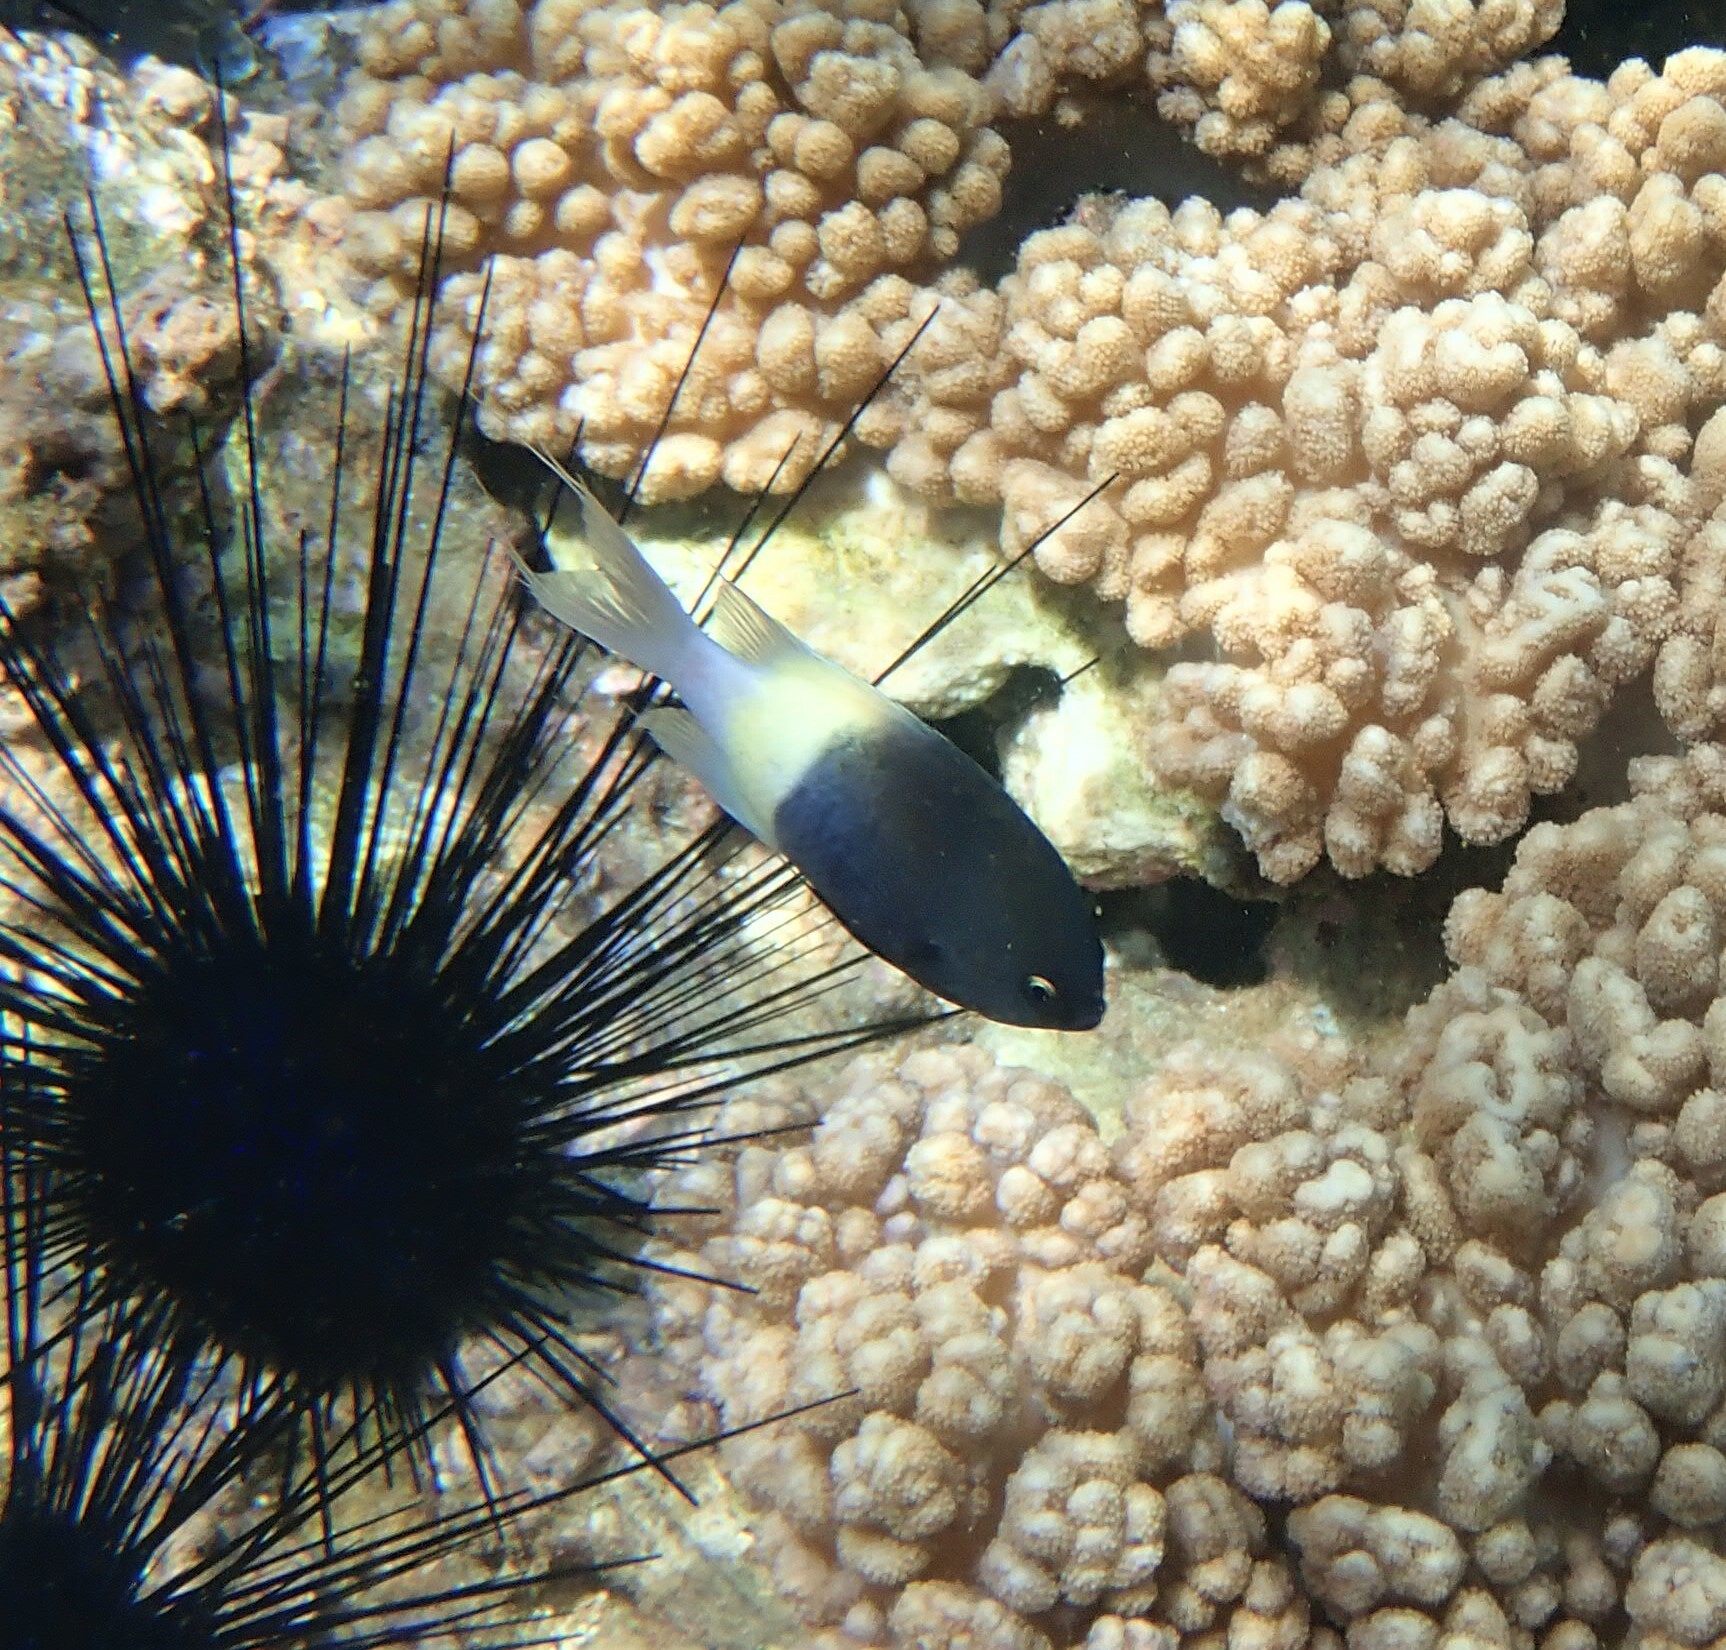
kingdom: Animalia
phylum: Chordata
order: Perciformes
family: Pomacentridae
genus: Chromis
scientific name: Chromis fieldi
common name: Chocolatedip chromis
